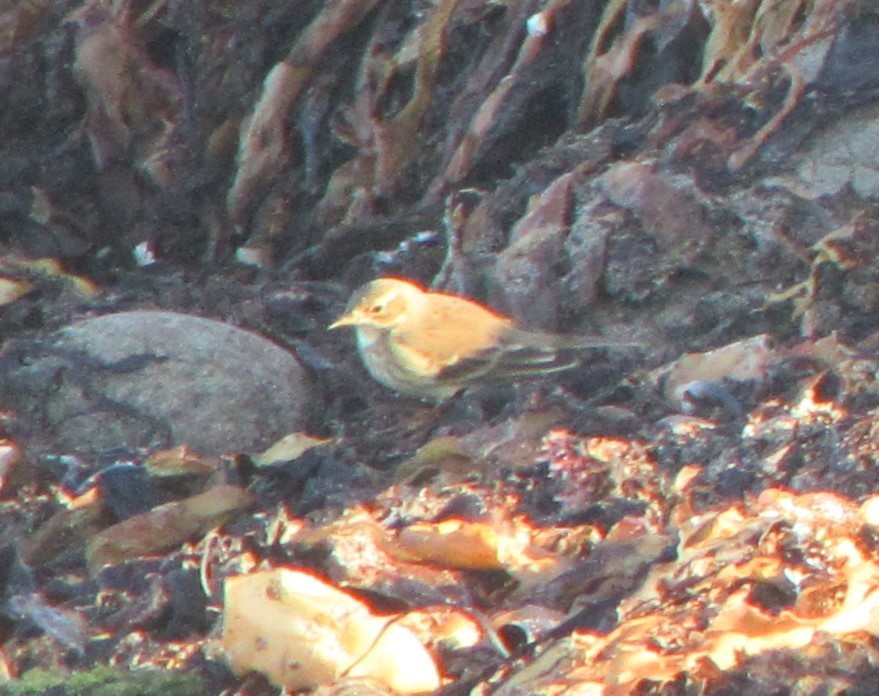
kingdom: Animalia
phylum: Chordata
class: Aves
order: Passeriformes
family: Motacillidae
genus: Anthus
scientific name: Anthus rubescens
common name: Buff-bellied pipit
